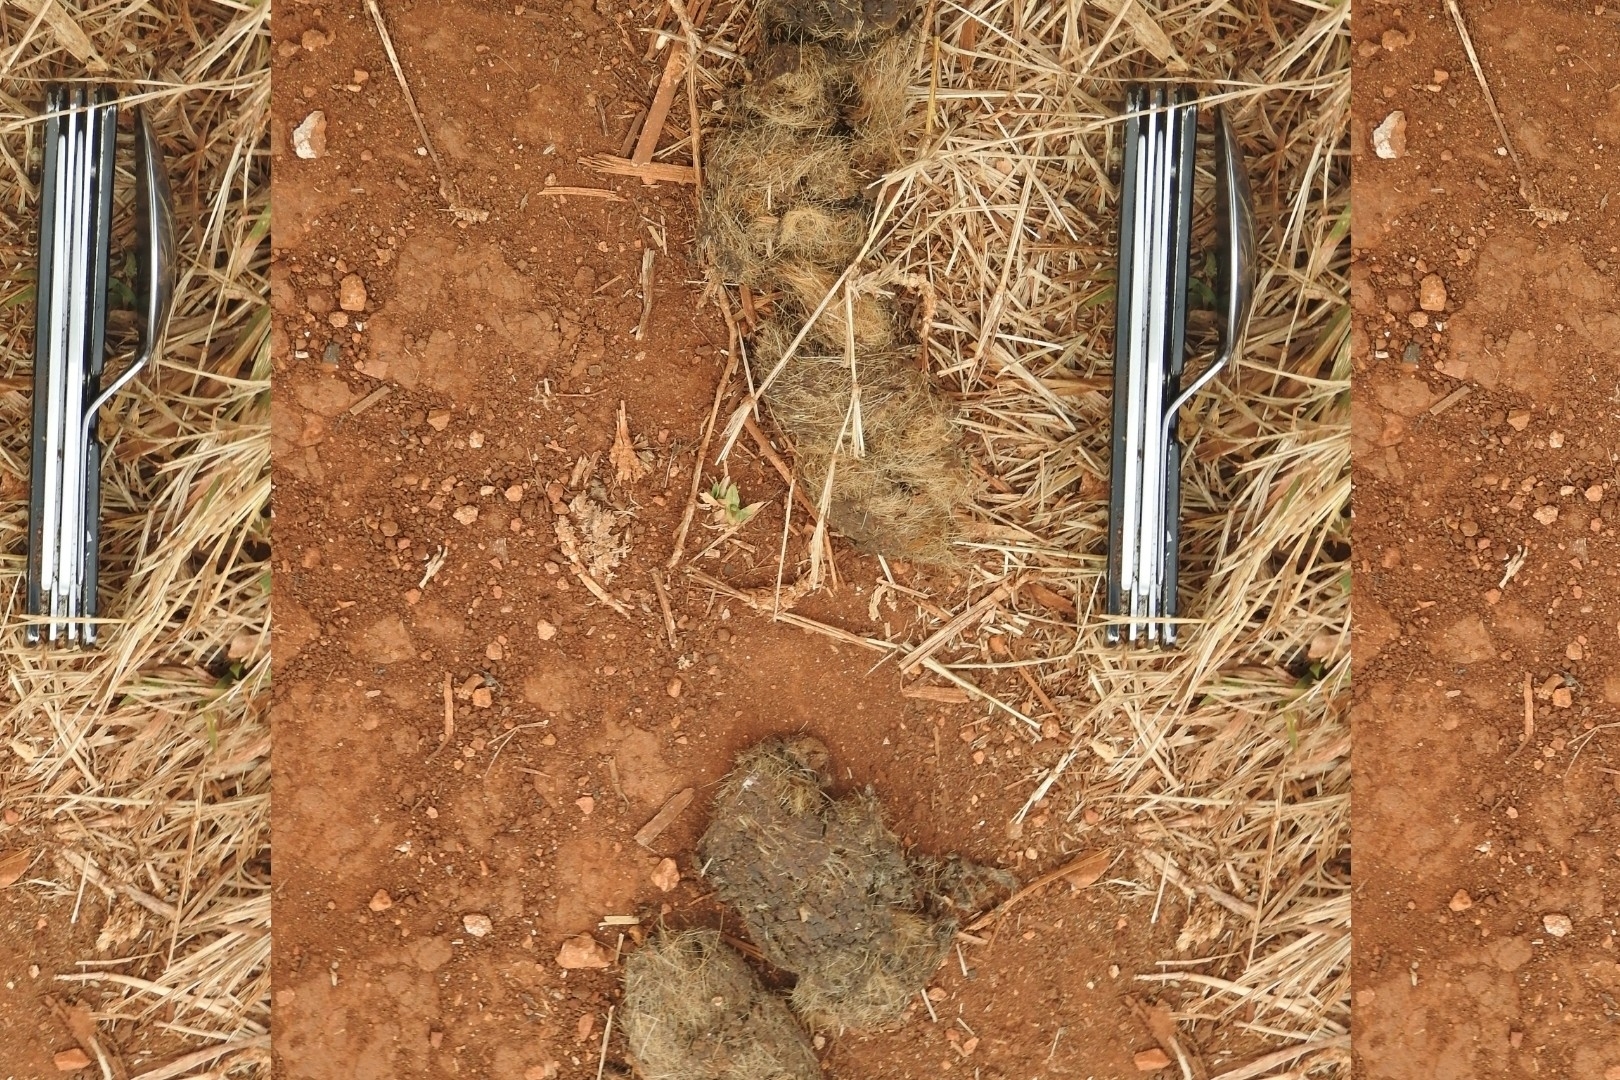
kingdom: Animalia
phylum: Chordata
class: Mammalia
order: Carnivora
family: Felidae
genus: Puma
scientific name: Puma concolor
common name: Puma
